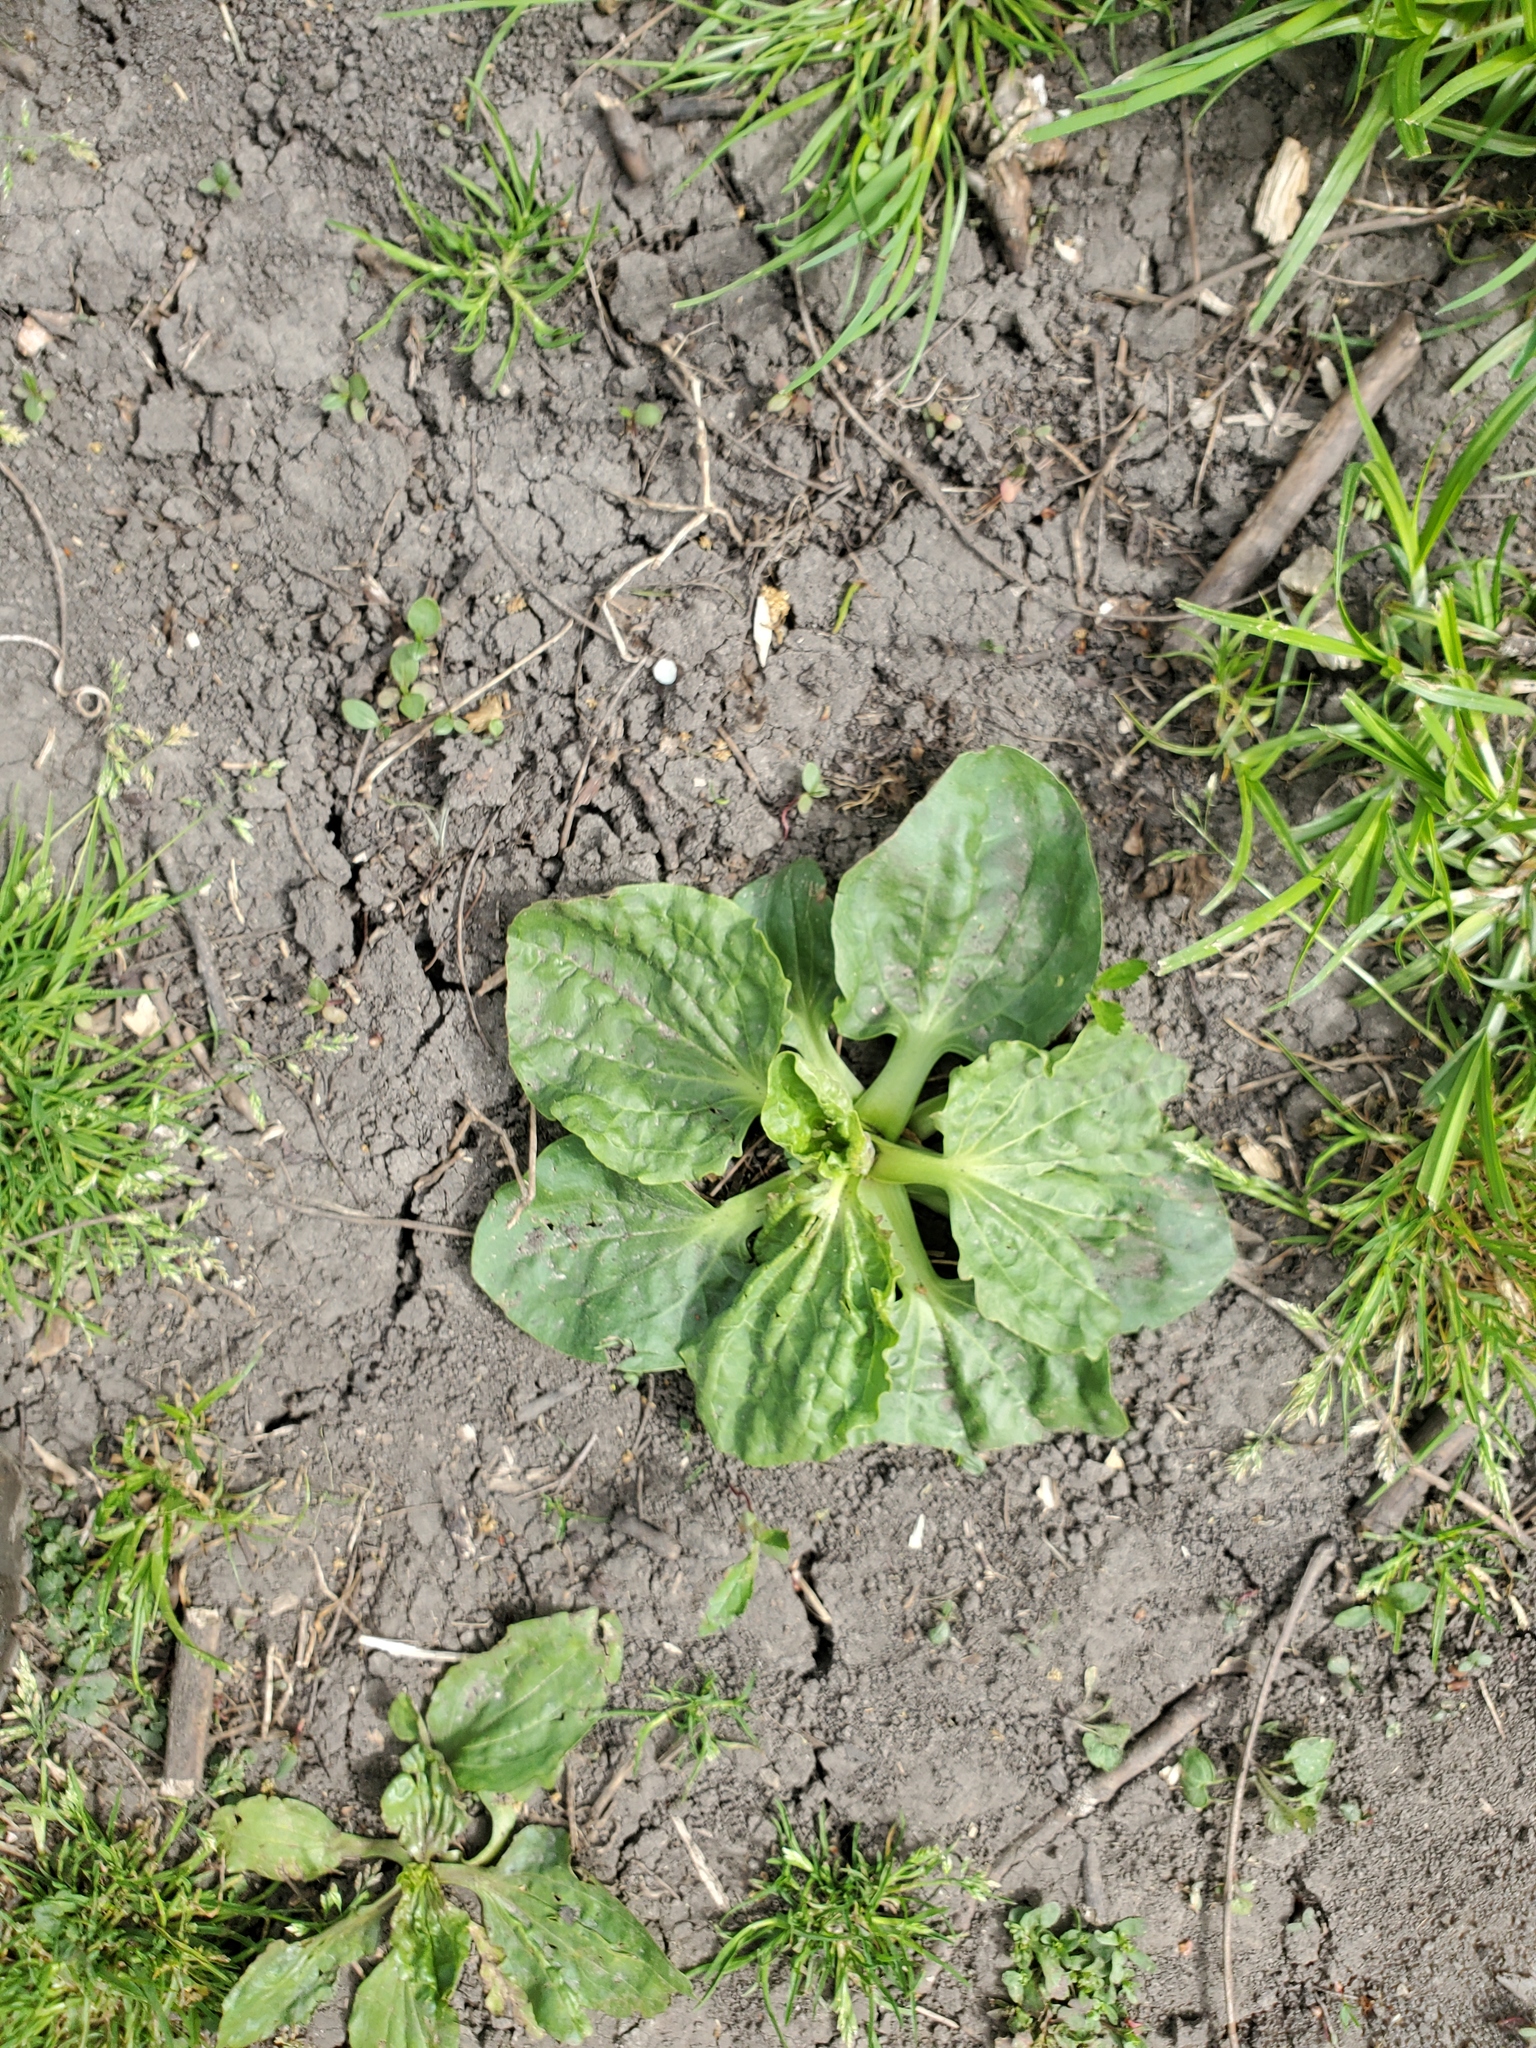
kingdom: Plantae
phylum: Tracheophyta
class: Magnoliopsida
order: Lamiales
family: Plantaginaceae
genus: Plantago
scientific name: Plantago major
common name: Common plantain
